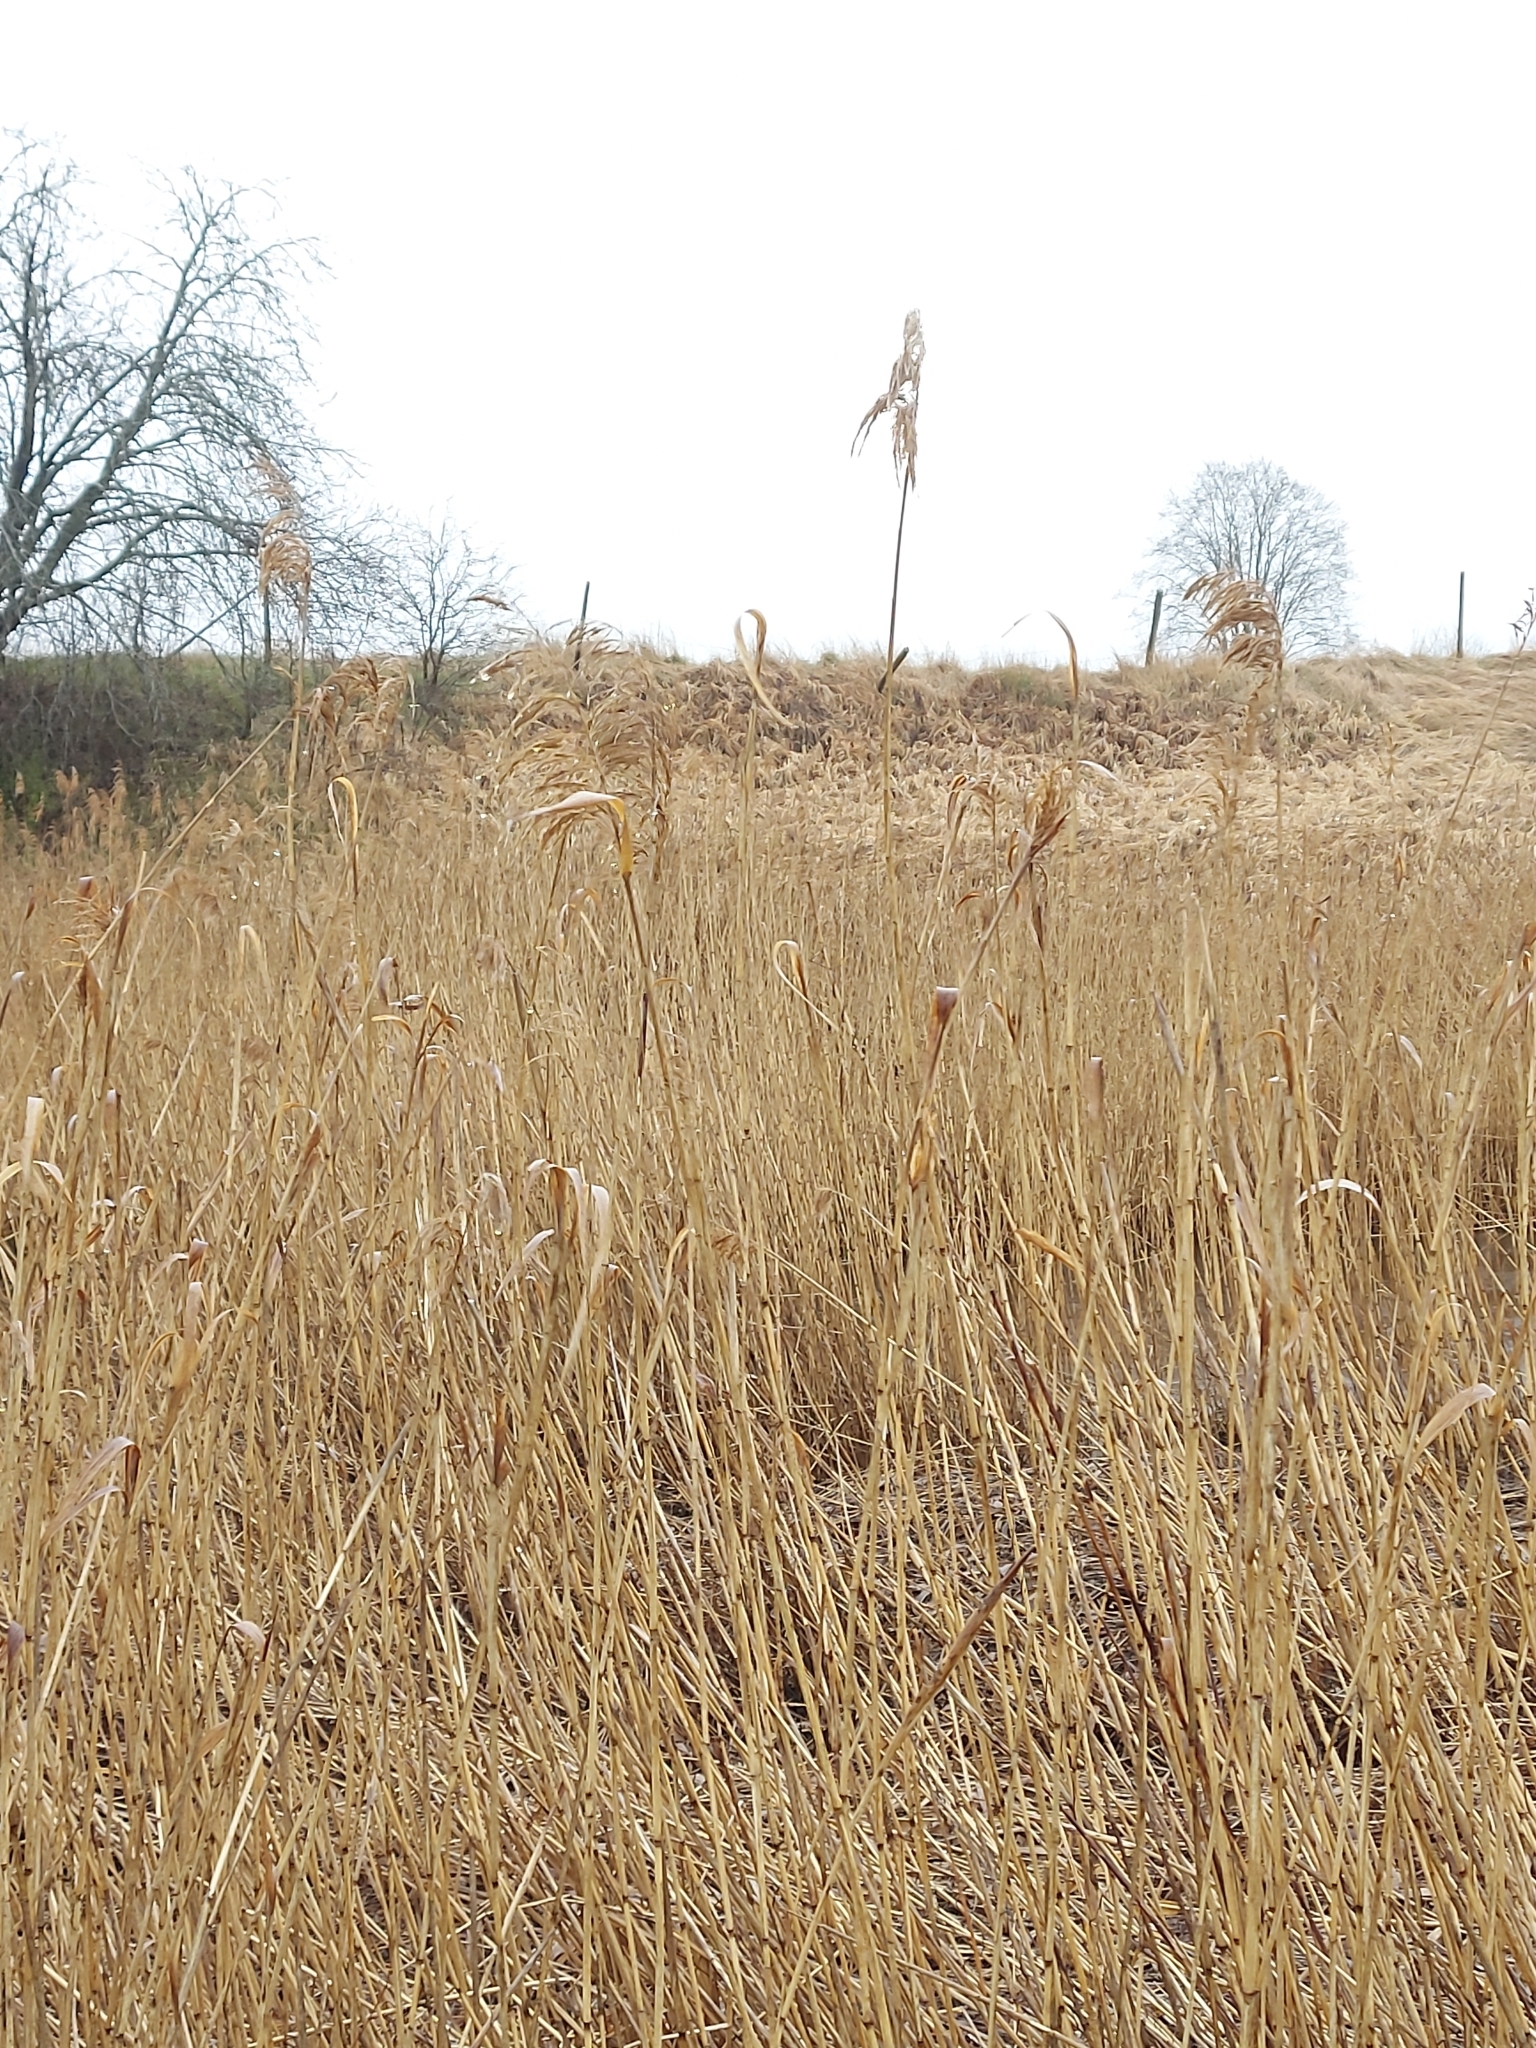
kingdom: Plantae
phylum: Tracheophyta
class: Liliopsida
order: Poales
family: Poaceae
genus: Phragmites
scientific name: Phragmites australis
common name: Common reed
